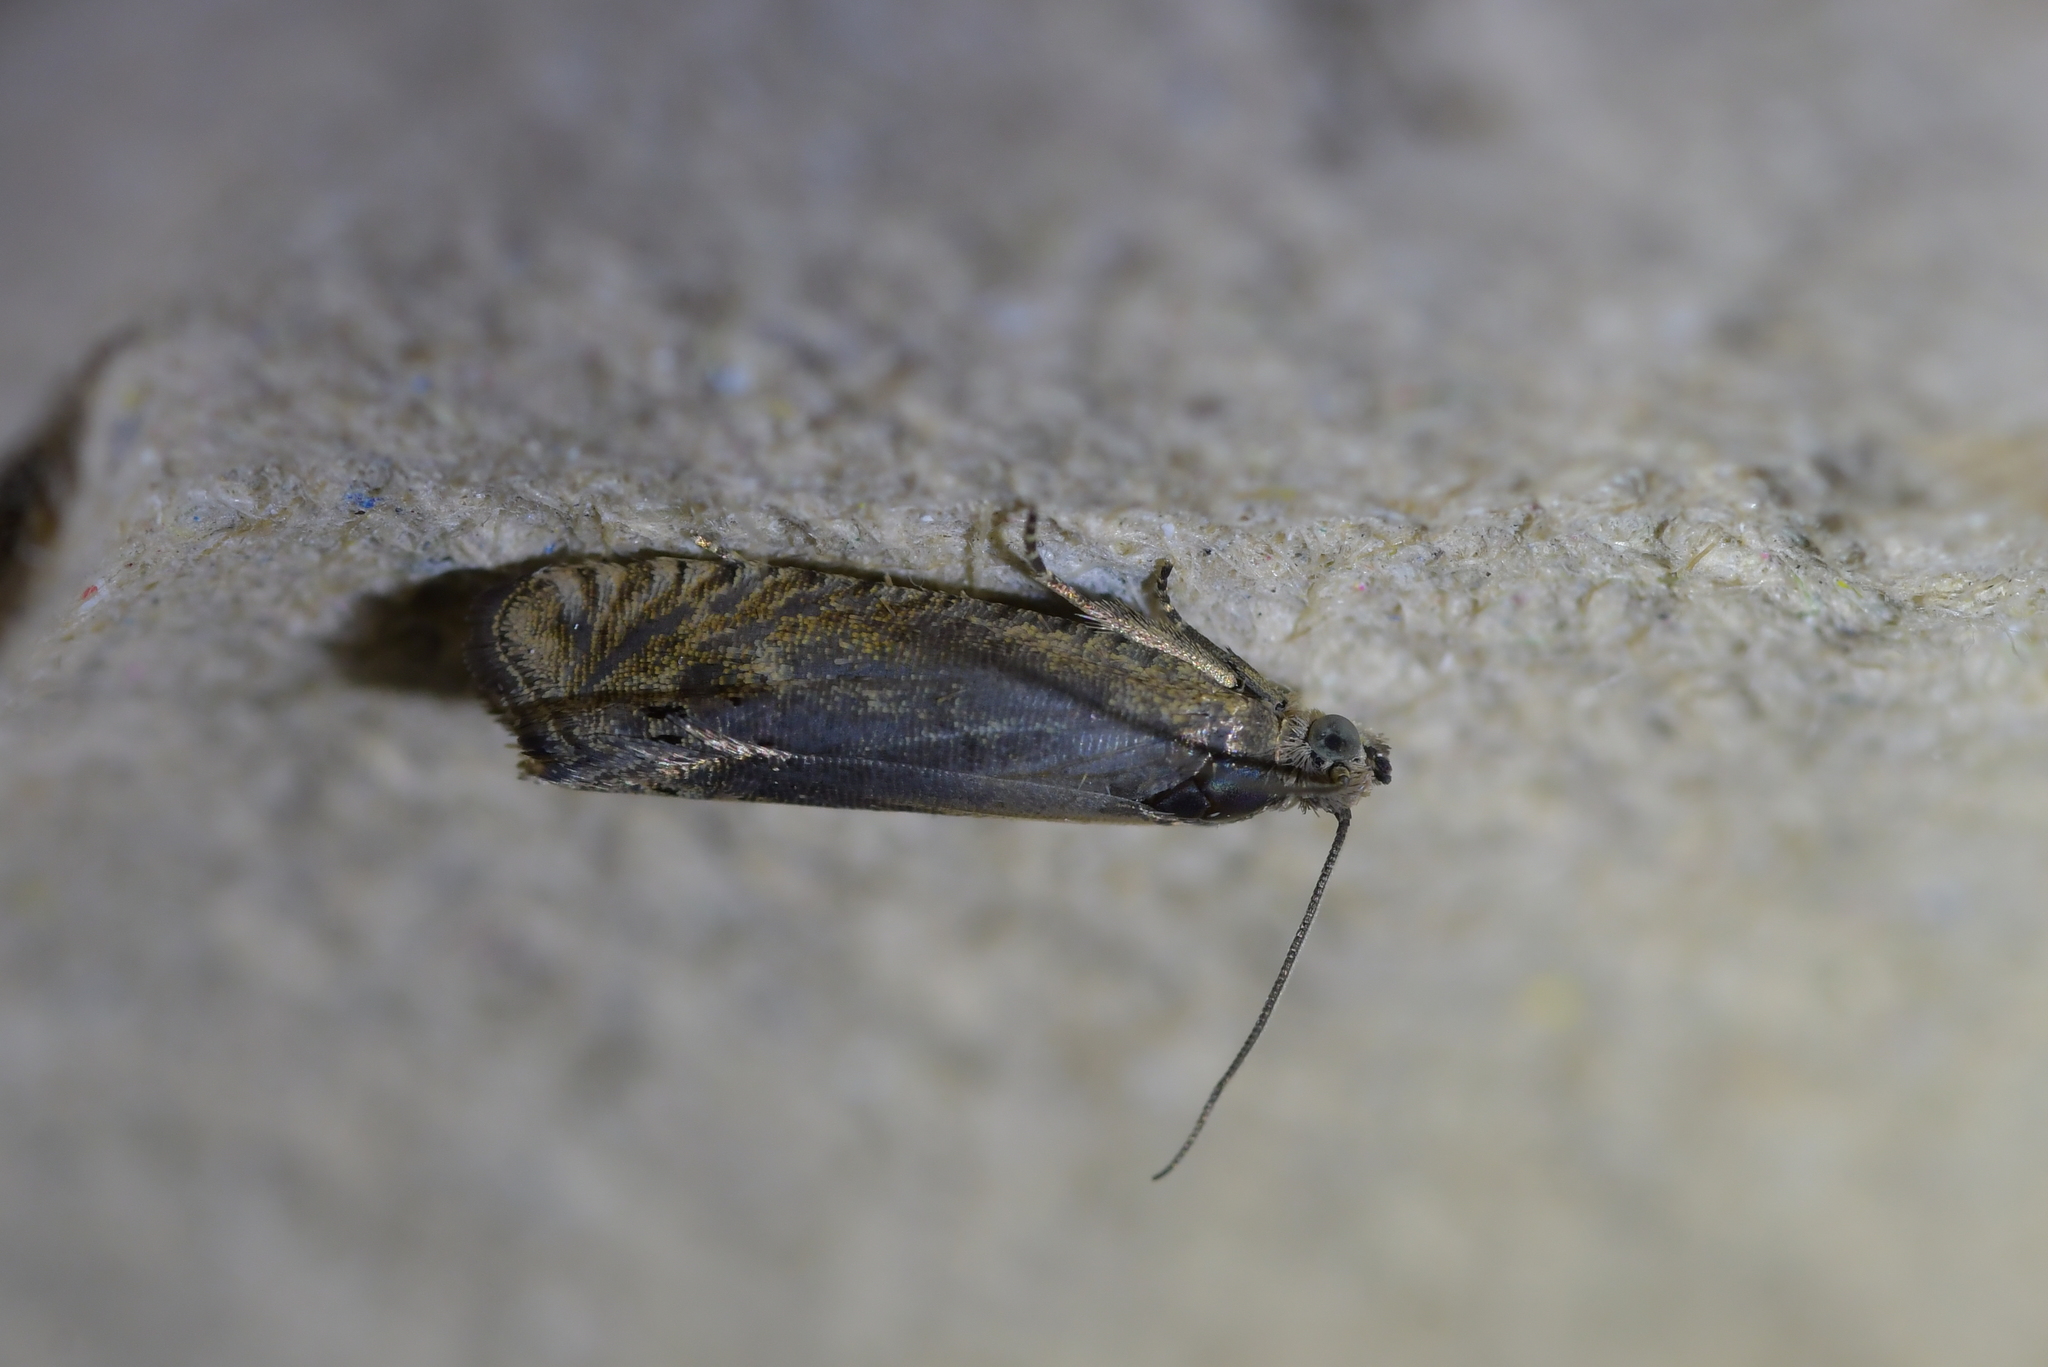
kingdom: Animalia
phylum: Arthropoda
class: Insecta
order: Lepidoptera
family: Tortricidae
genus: Cydia
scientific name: Cydia succedana
